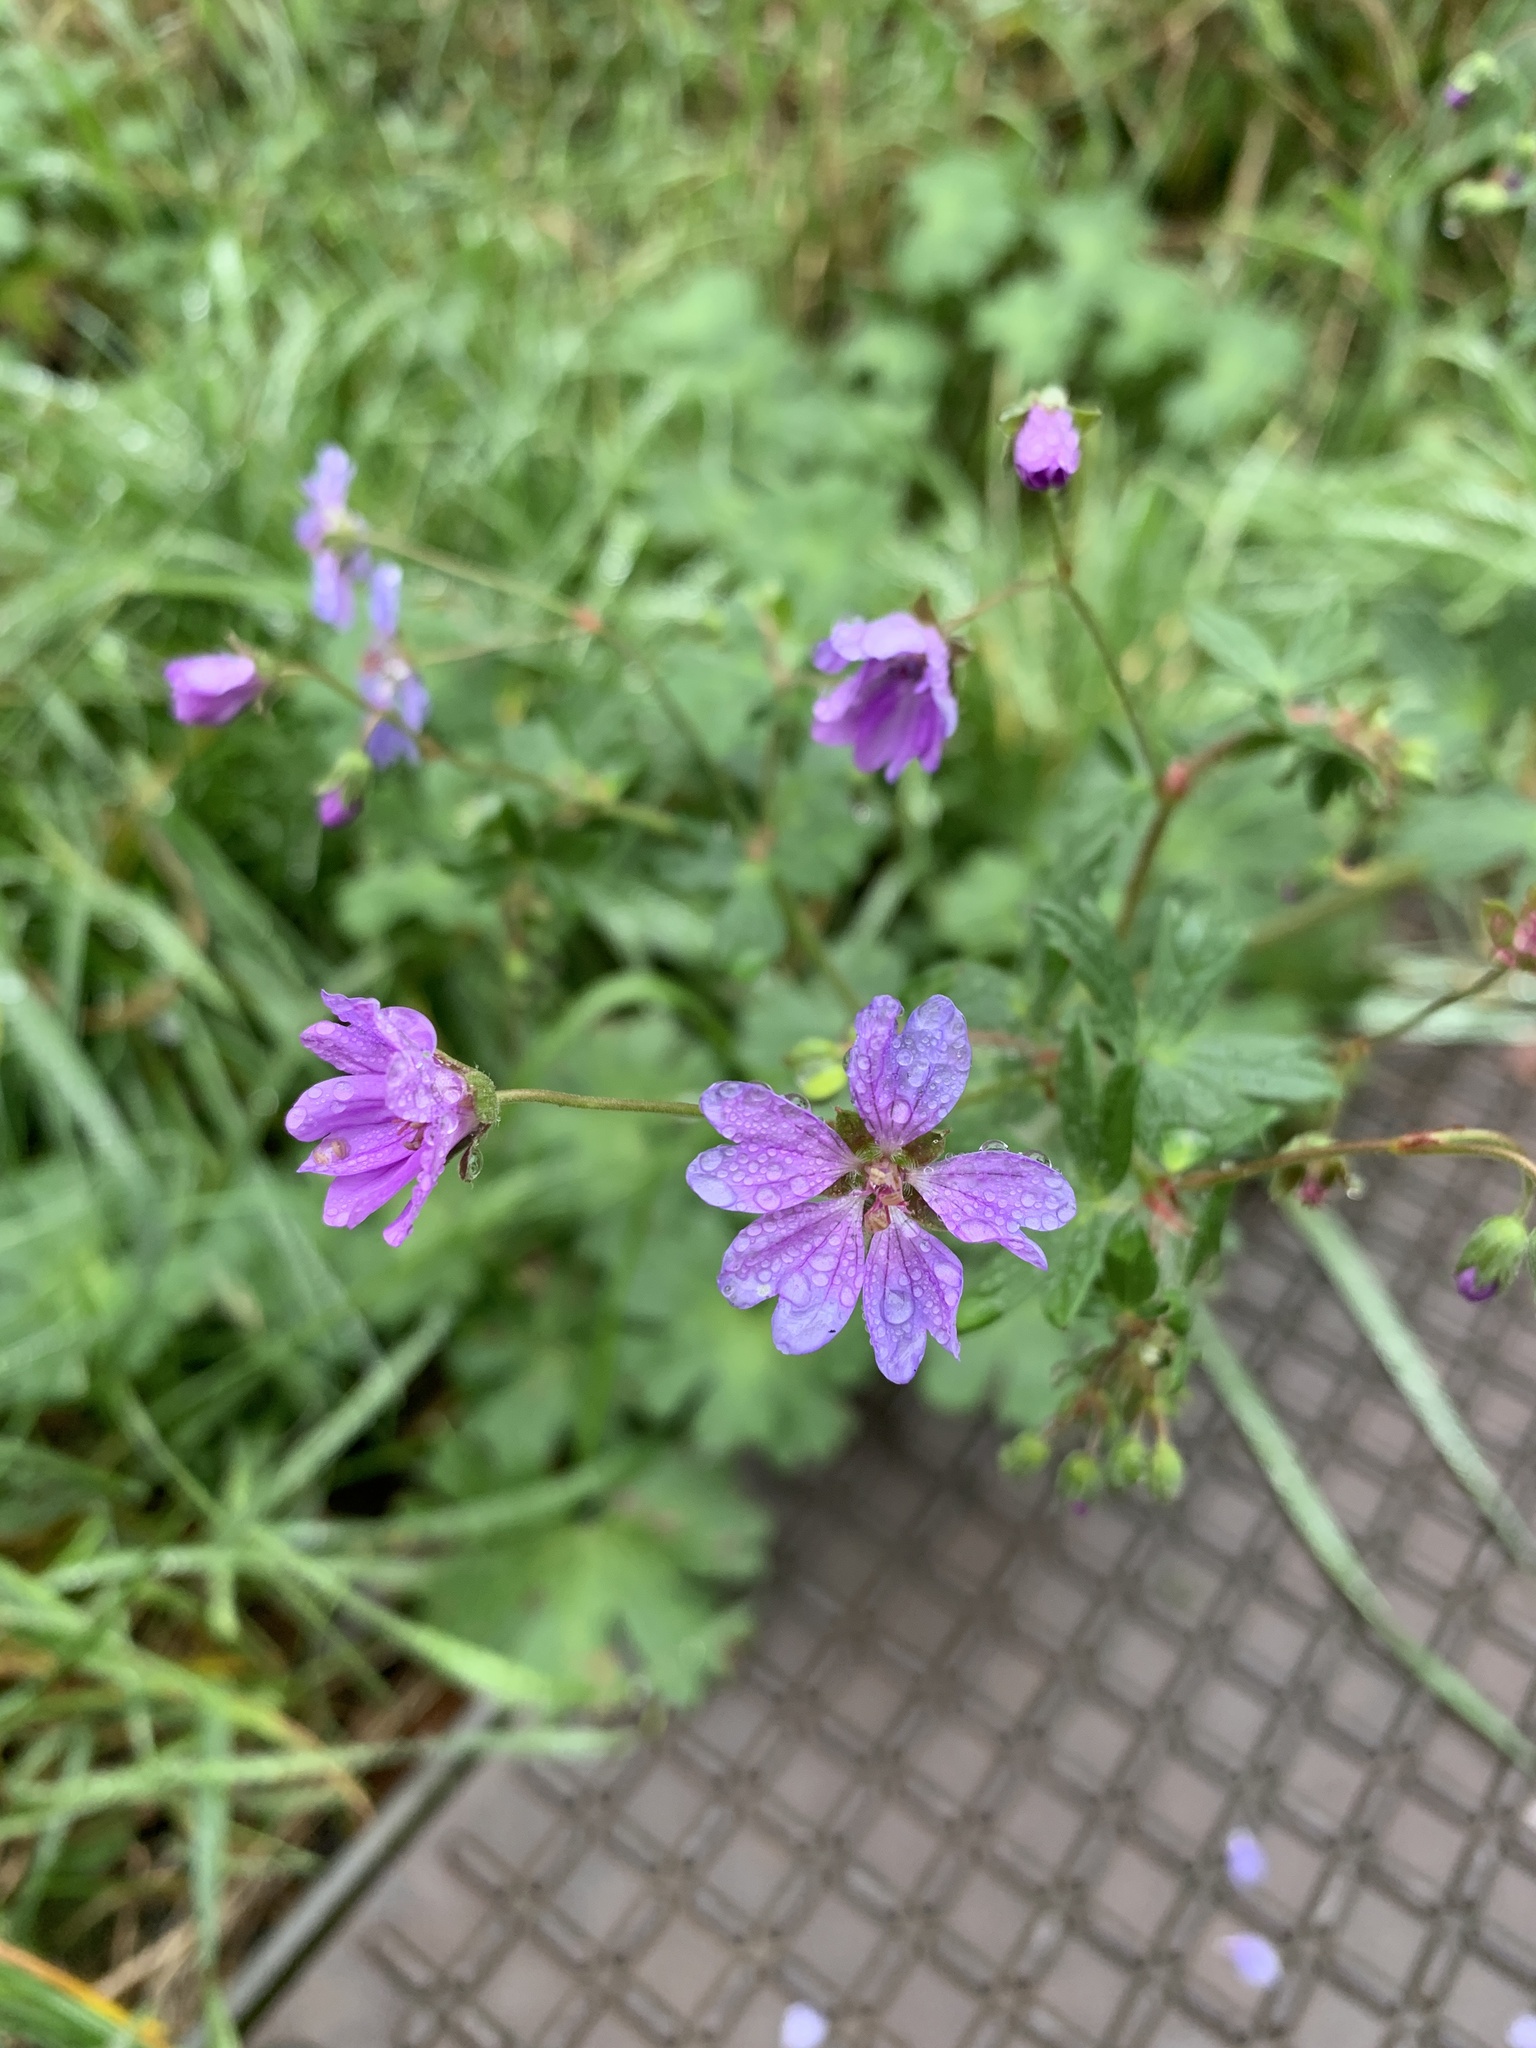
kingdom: Plantae
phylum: Tracheophyta
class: Magnoliopsida
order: Geraniales
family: Geraniaceae
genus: Geranium
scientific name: Geranium pyrenaicum
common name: Hedgerow crane's-bill
